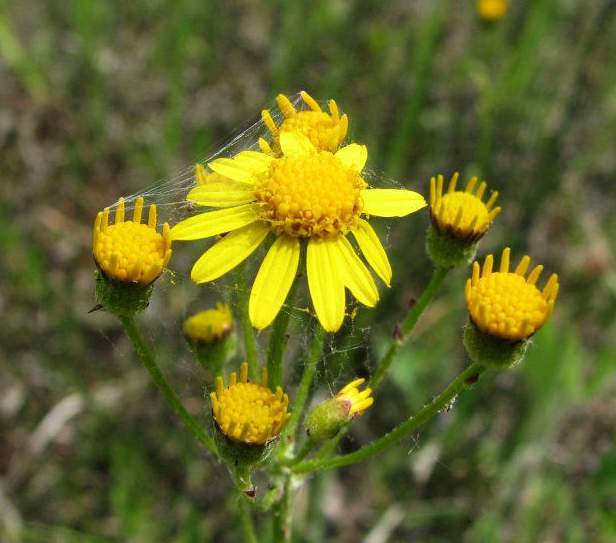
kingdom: Plantae
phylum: Tracheophyta
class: Magnoliopsida
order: Asterales
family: Asteraceae
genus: Packera
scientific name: Packera paupercula
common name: Balsam groundsel
